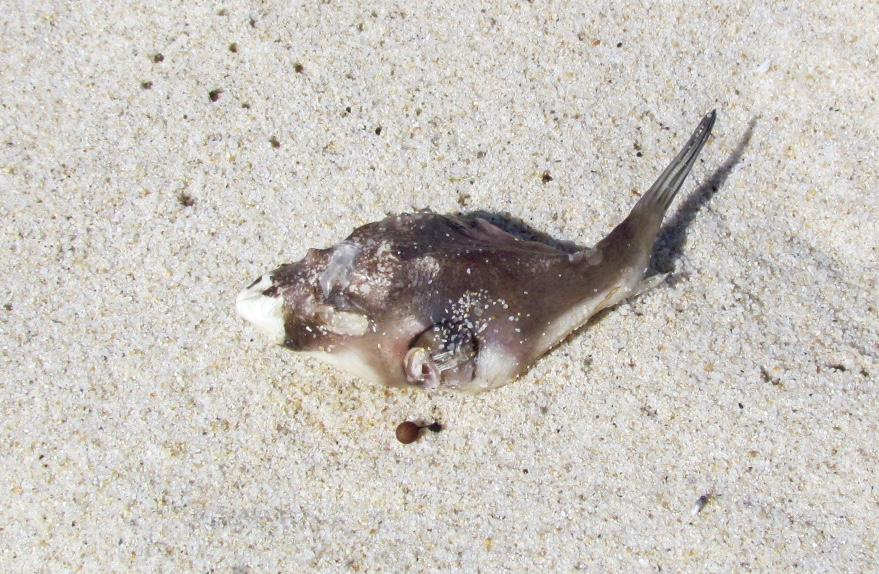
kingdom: Animalia
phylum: Chordata
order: Tetraodontiformes
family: Tetraodontidae
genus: Omegophora
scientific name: Omegophora armilla
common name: Ringed pufferfish
